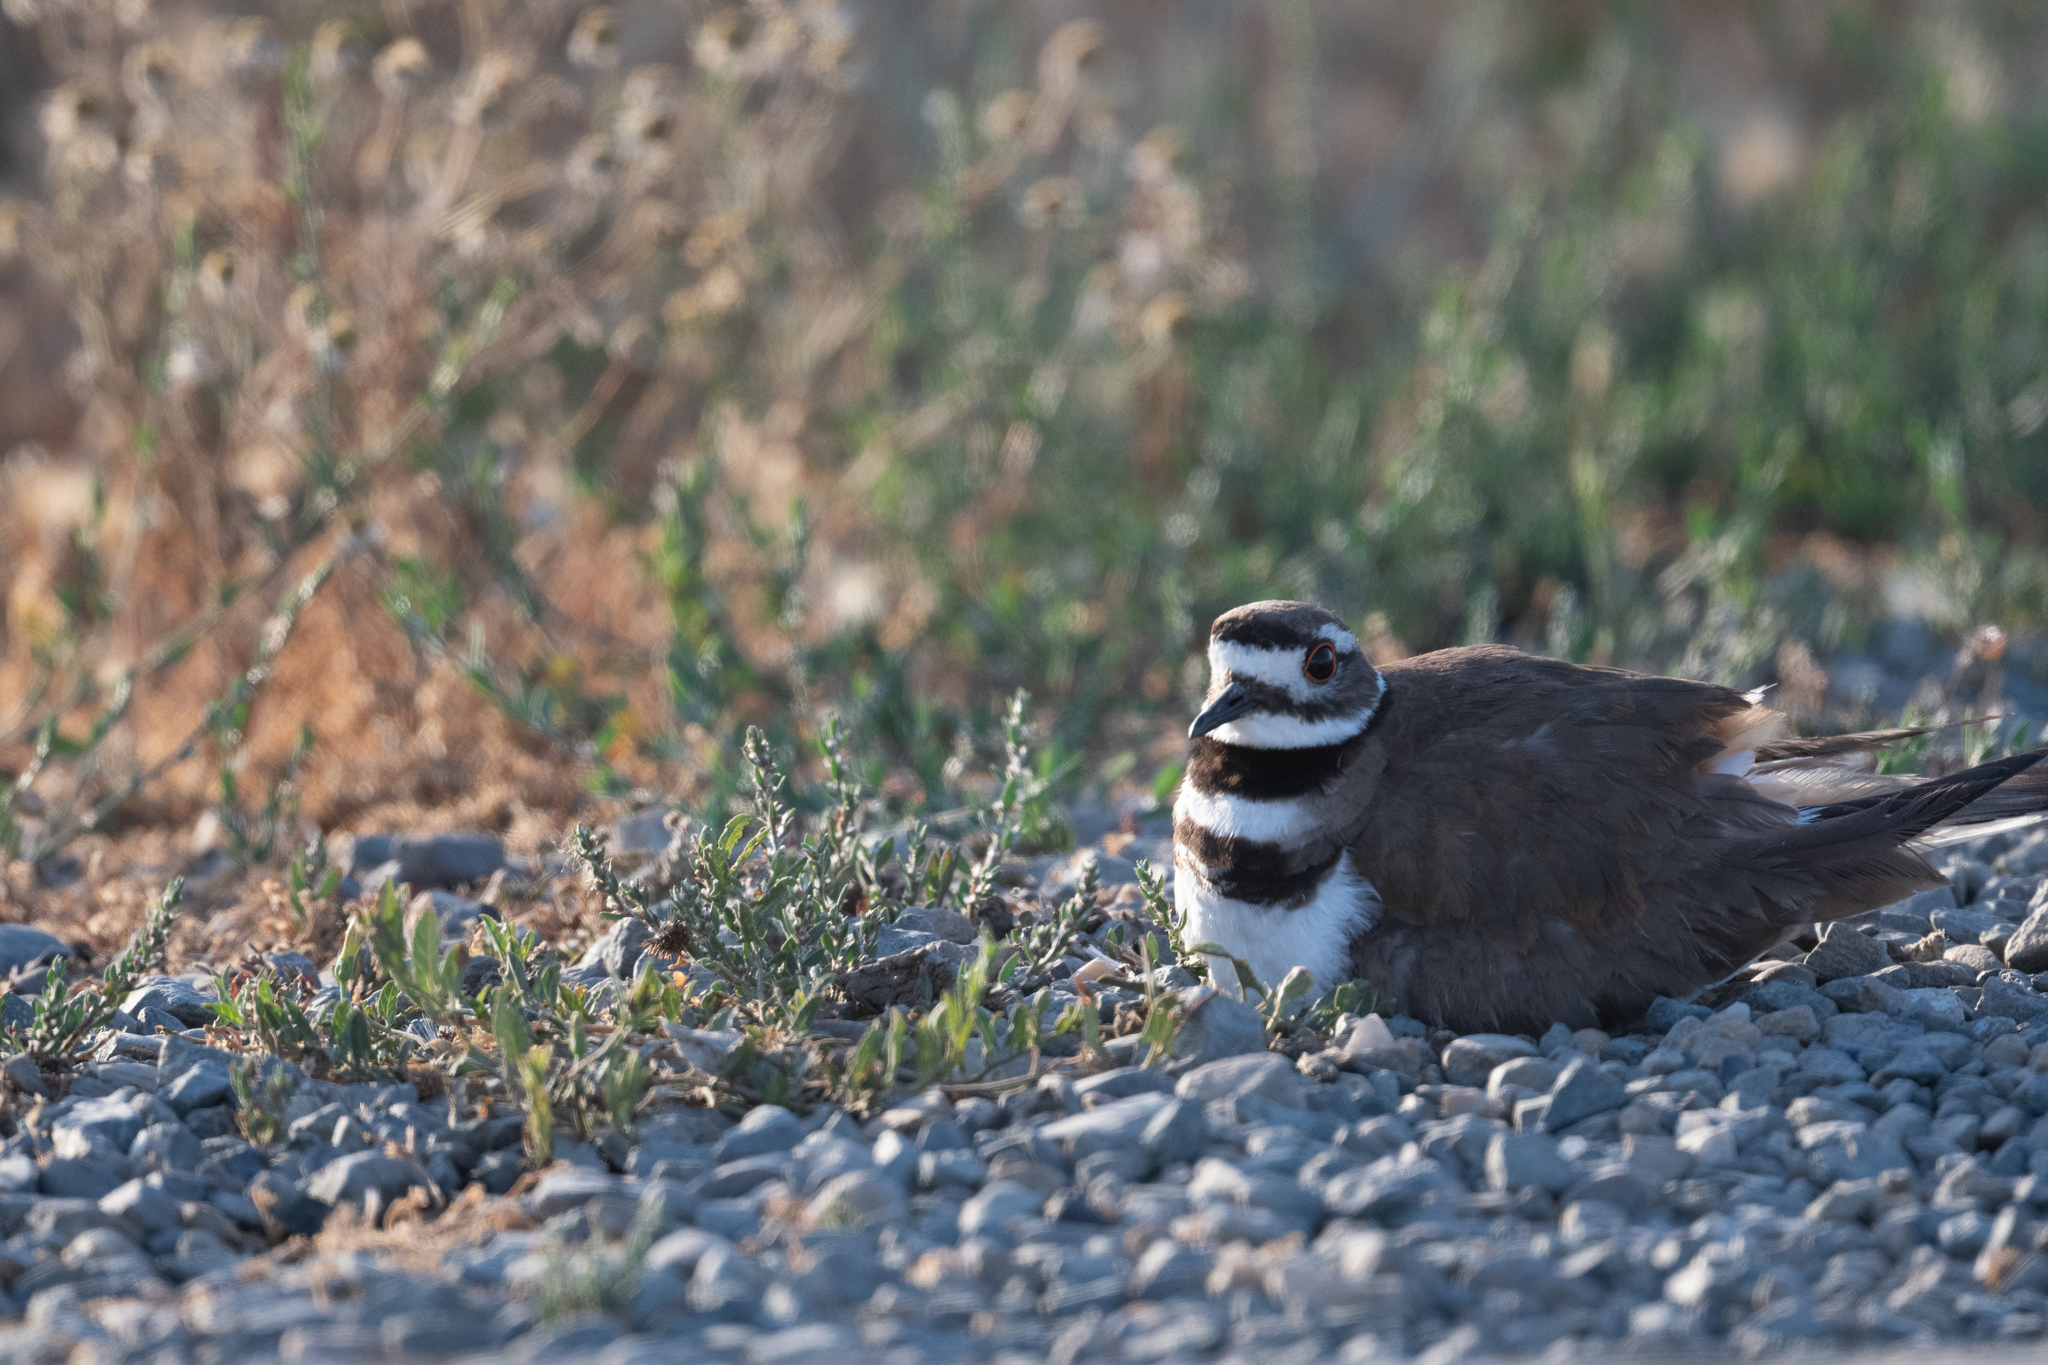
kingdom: Animalia
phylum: Chordata
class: Aves
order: Charadriiformes
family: Charadriidae
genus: Charadrius
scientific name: Charadrius vociferus
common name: Killdeer
